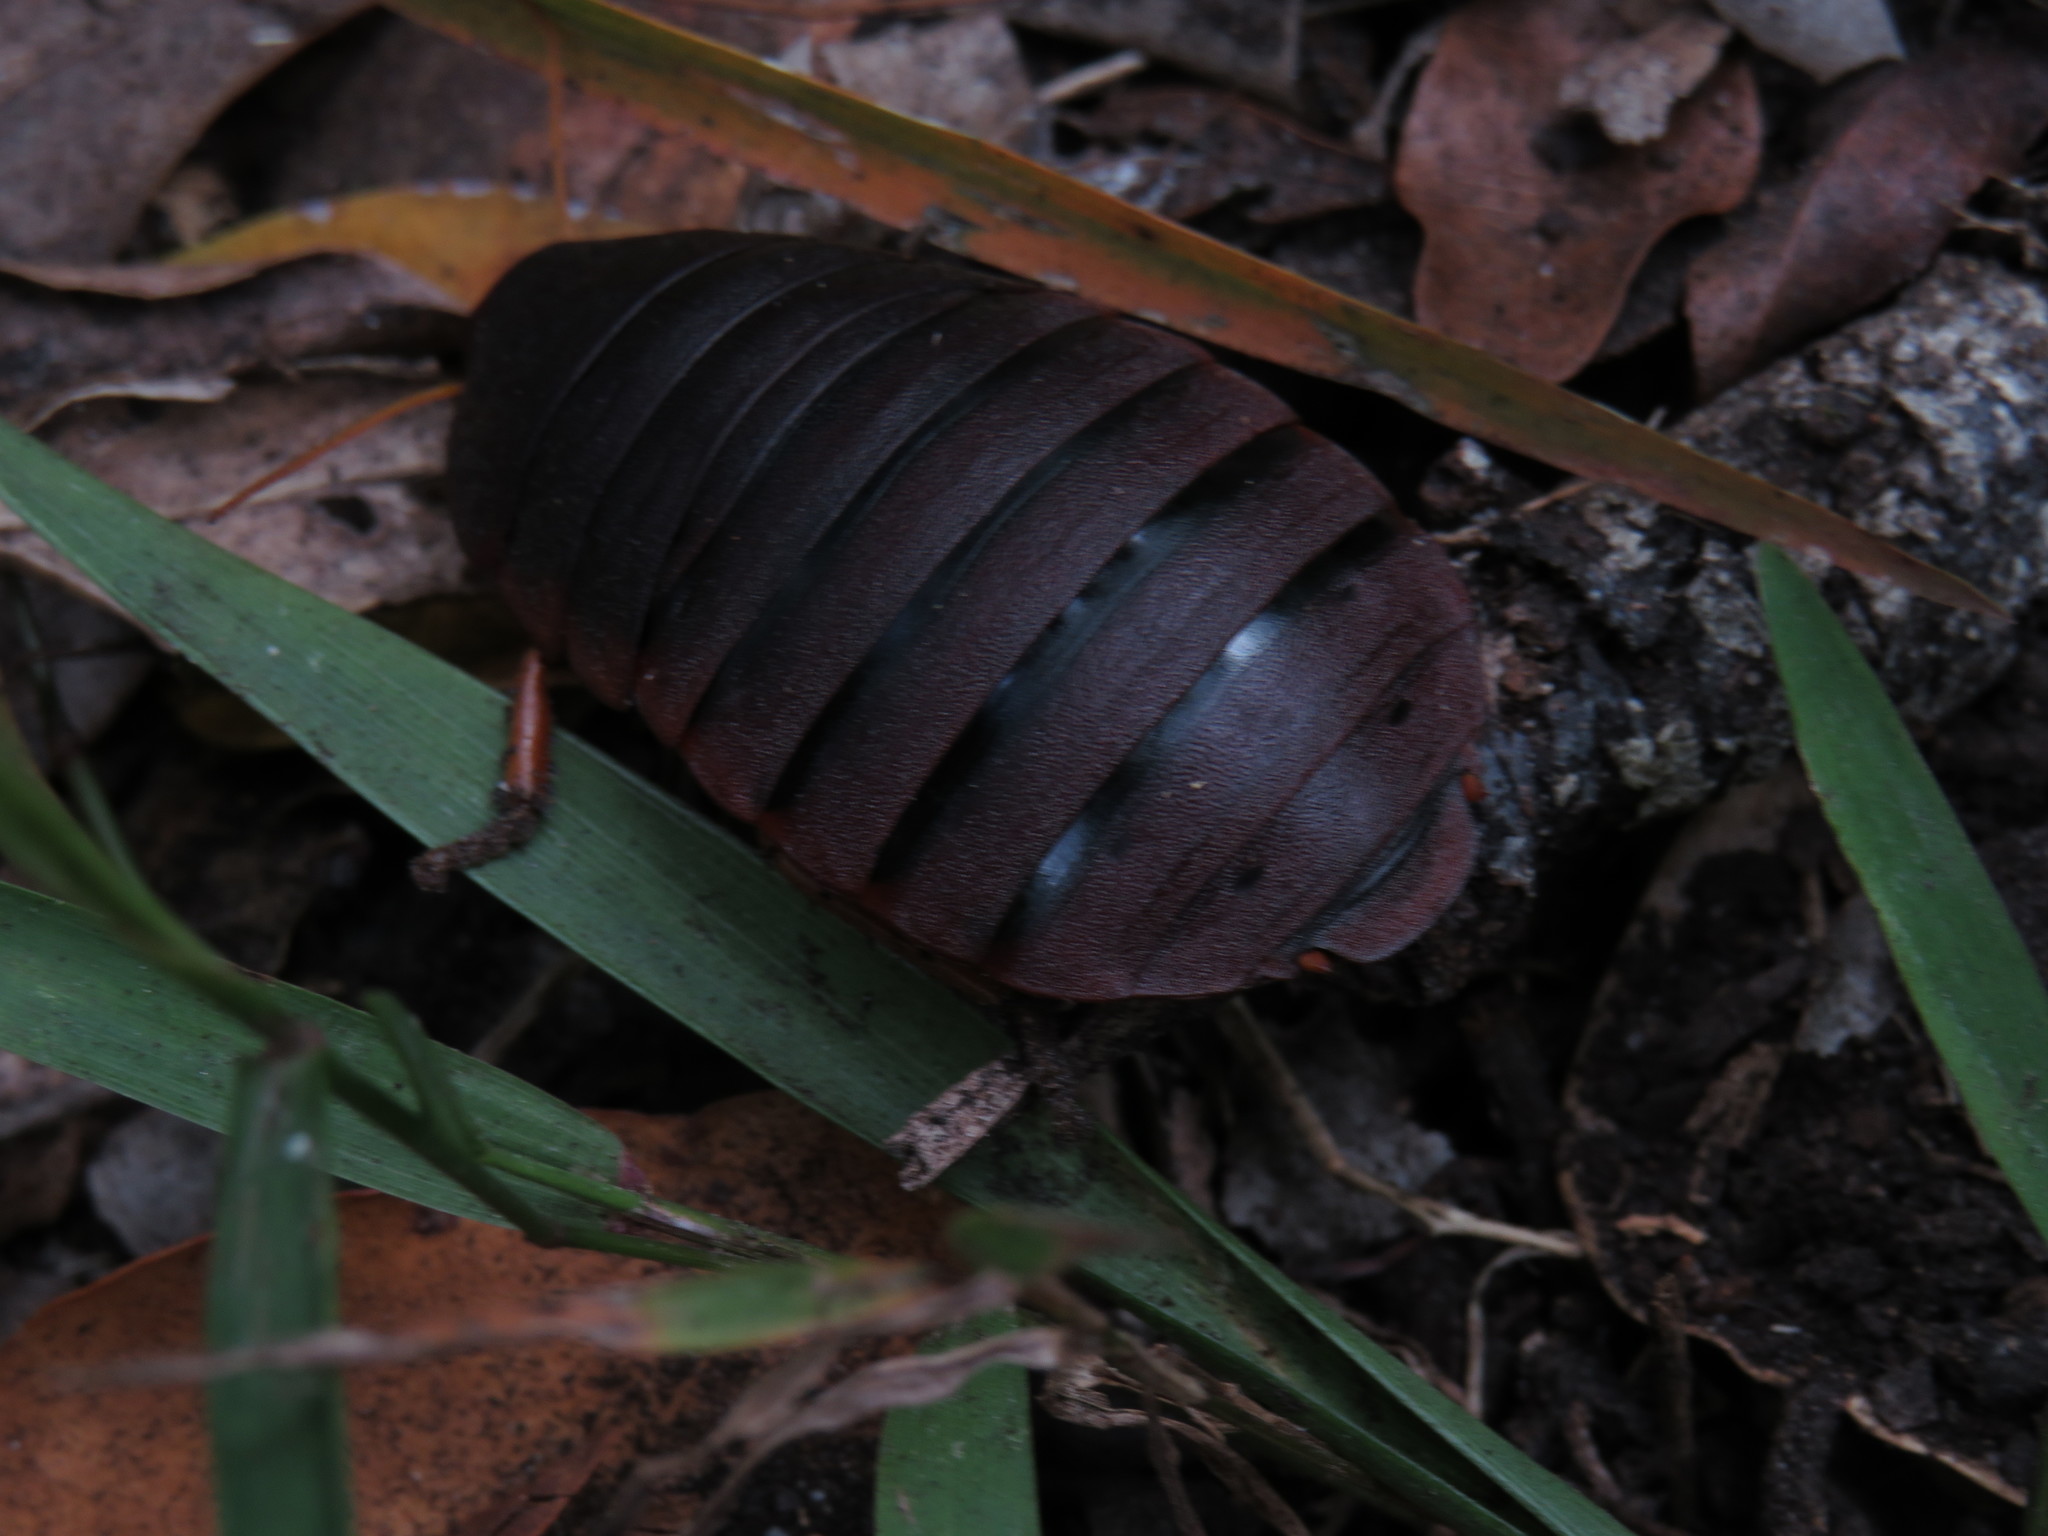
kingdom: Animalia
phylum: Arthropoda
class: Insecta
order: Blattodea
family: Blaberidae
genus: Aptera
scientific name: Aptera fusca
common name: Cape mountain cockroach
